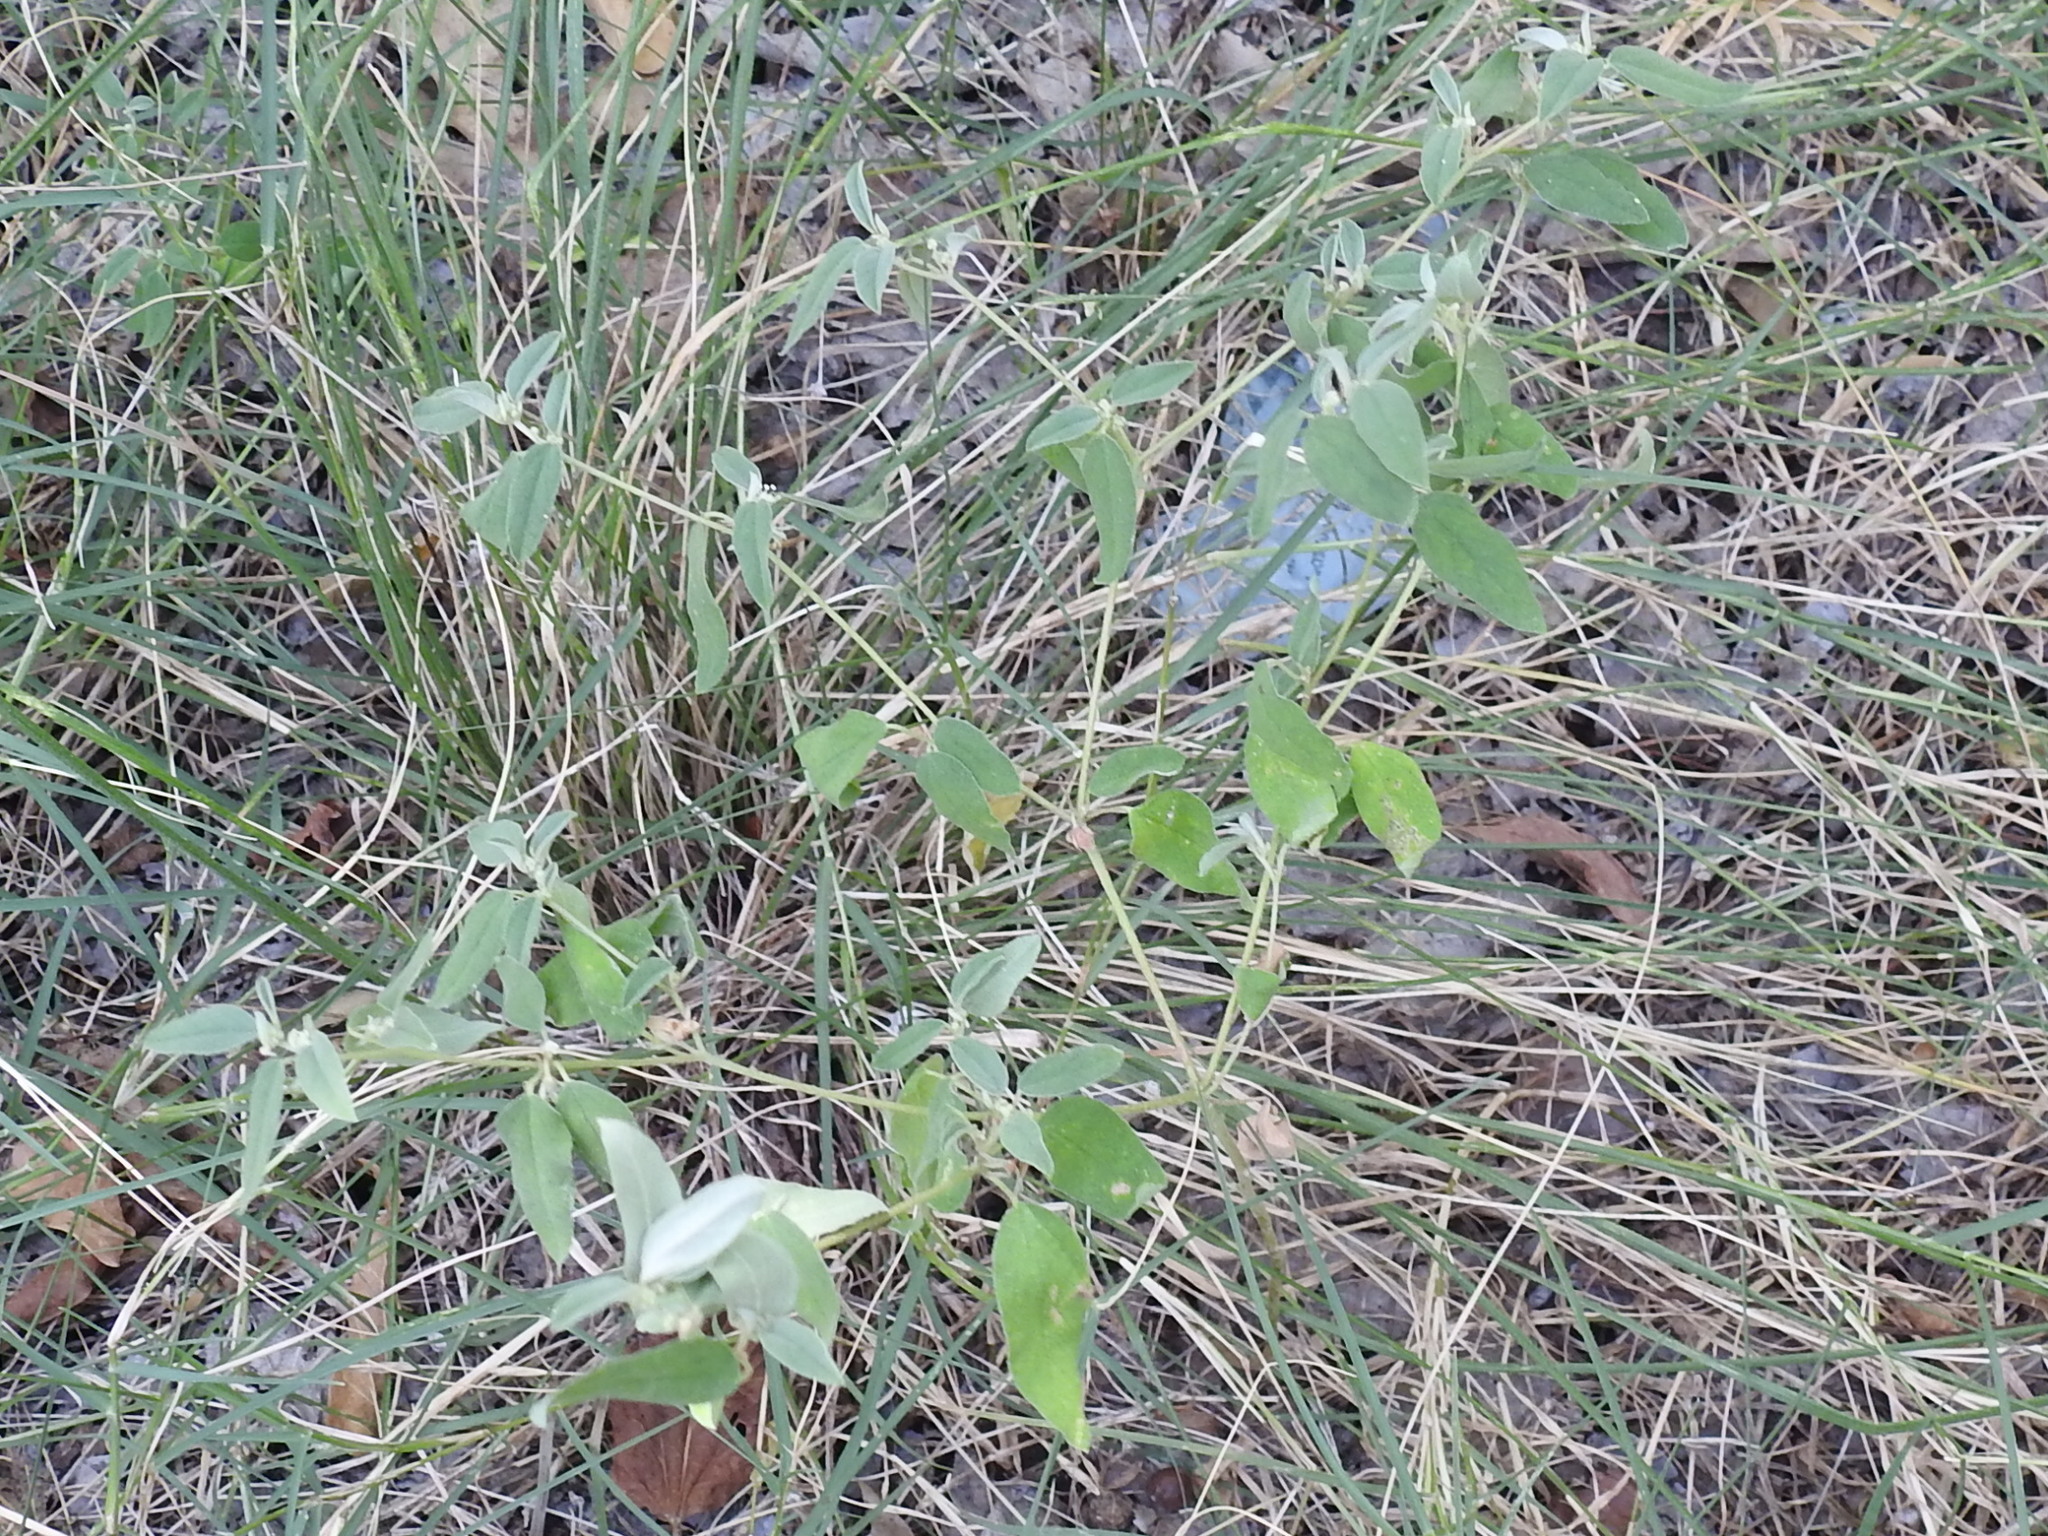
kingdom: Plantae
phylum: Tracheophyta
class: Magnoliopsida
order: Malpighiales
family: Euphorbiaceae
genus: Croton
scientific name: Croton monanthogynus
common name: One-seed croton
